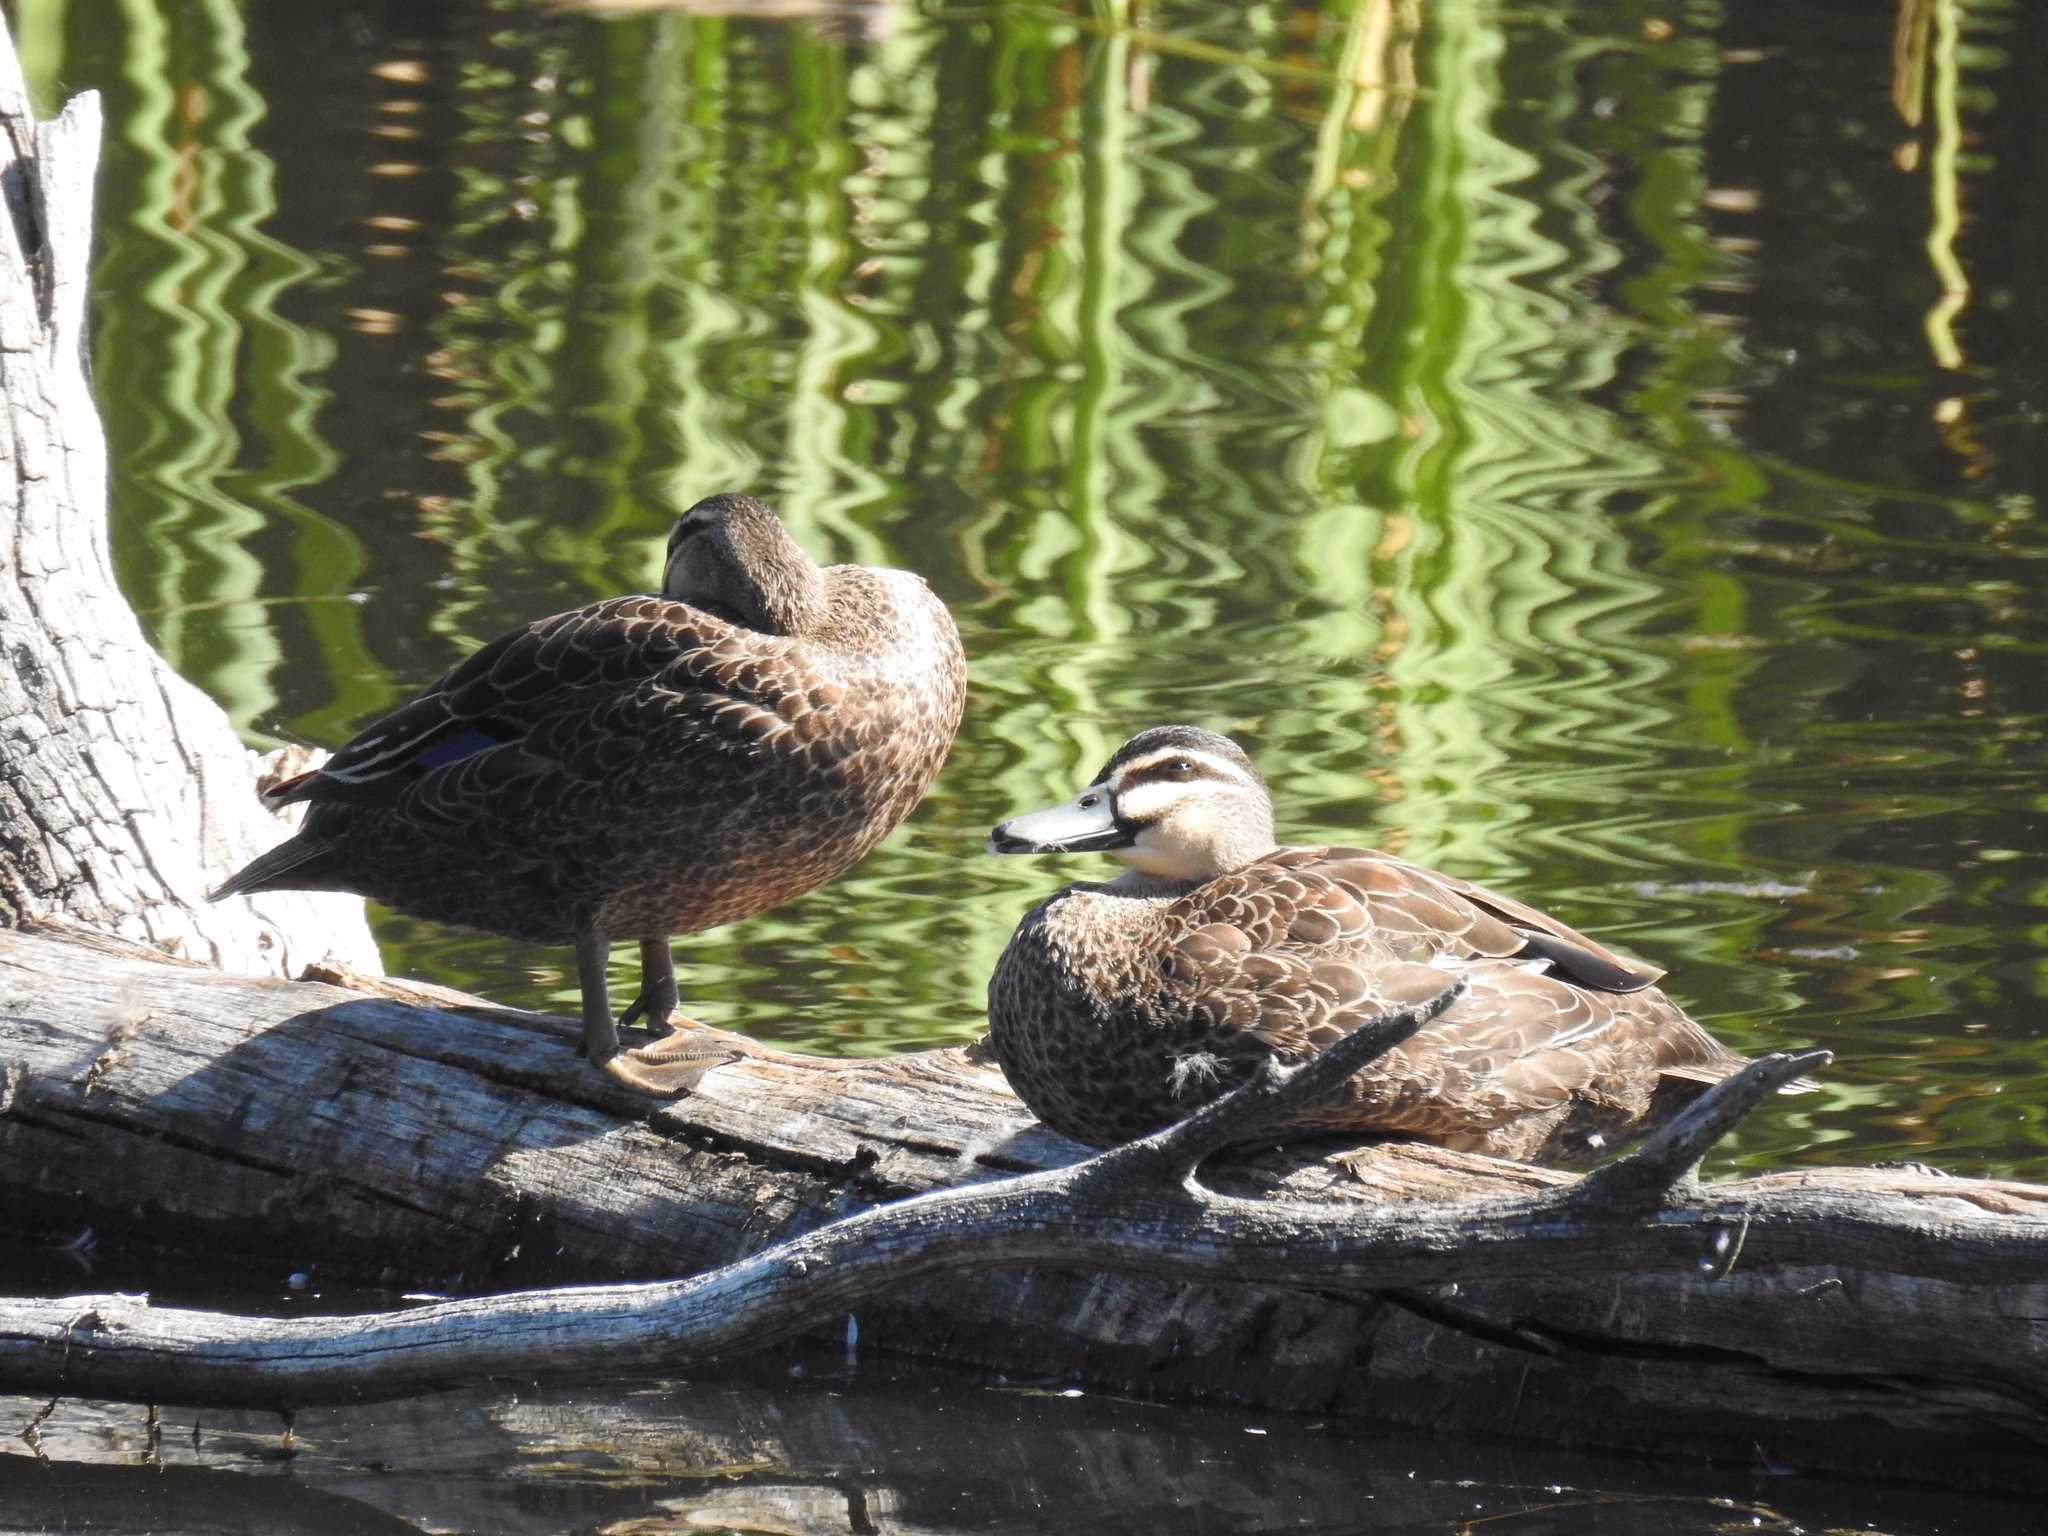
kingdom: Animalia
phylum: Chordata
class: Aves
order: Anseriformes
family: Anatidae
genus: Anas
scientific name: Anas superciliosa
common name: Pacific black duck
